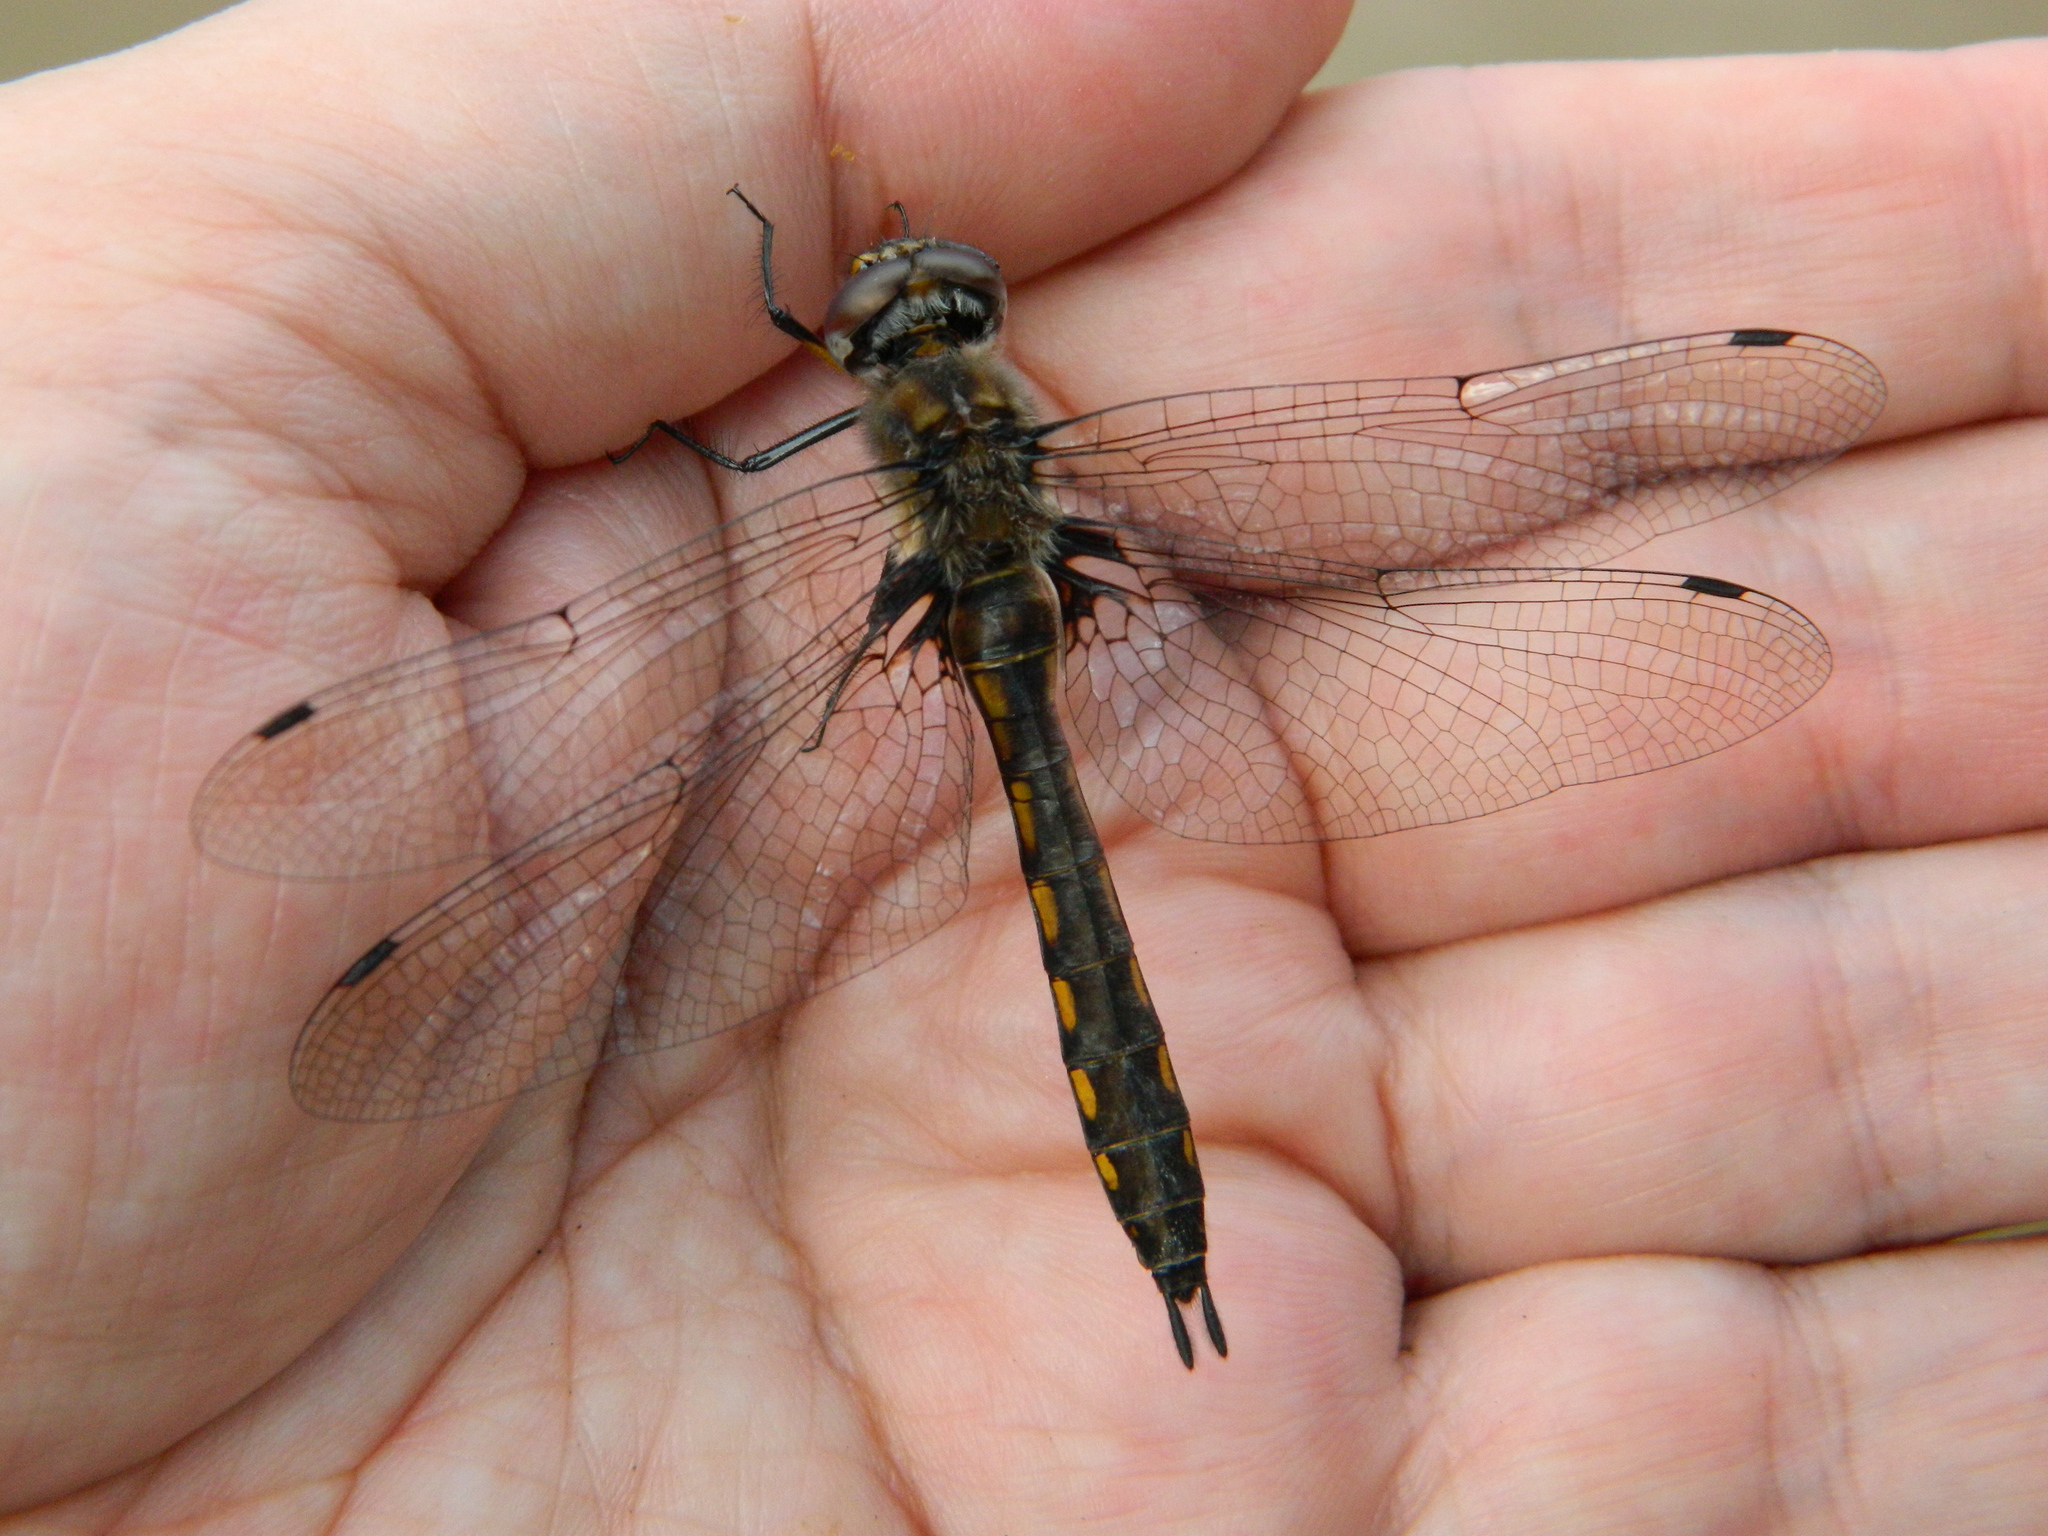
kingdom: Animalia
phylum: Arthropoda
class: Insecta
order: Odonata
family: Corduliidae
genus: Epitheca
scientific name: Epitheca spinigera
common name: Spiny baskettail
